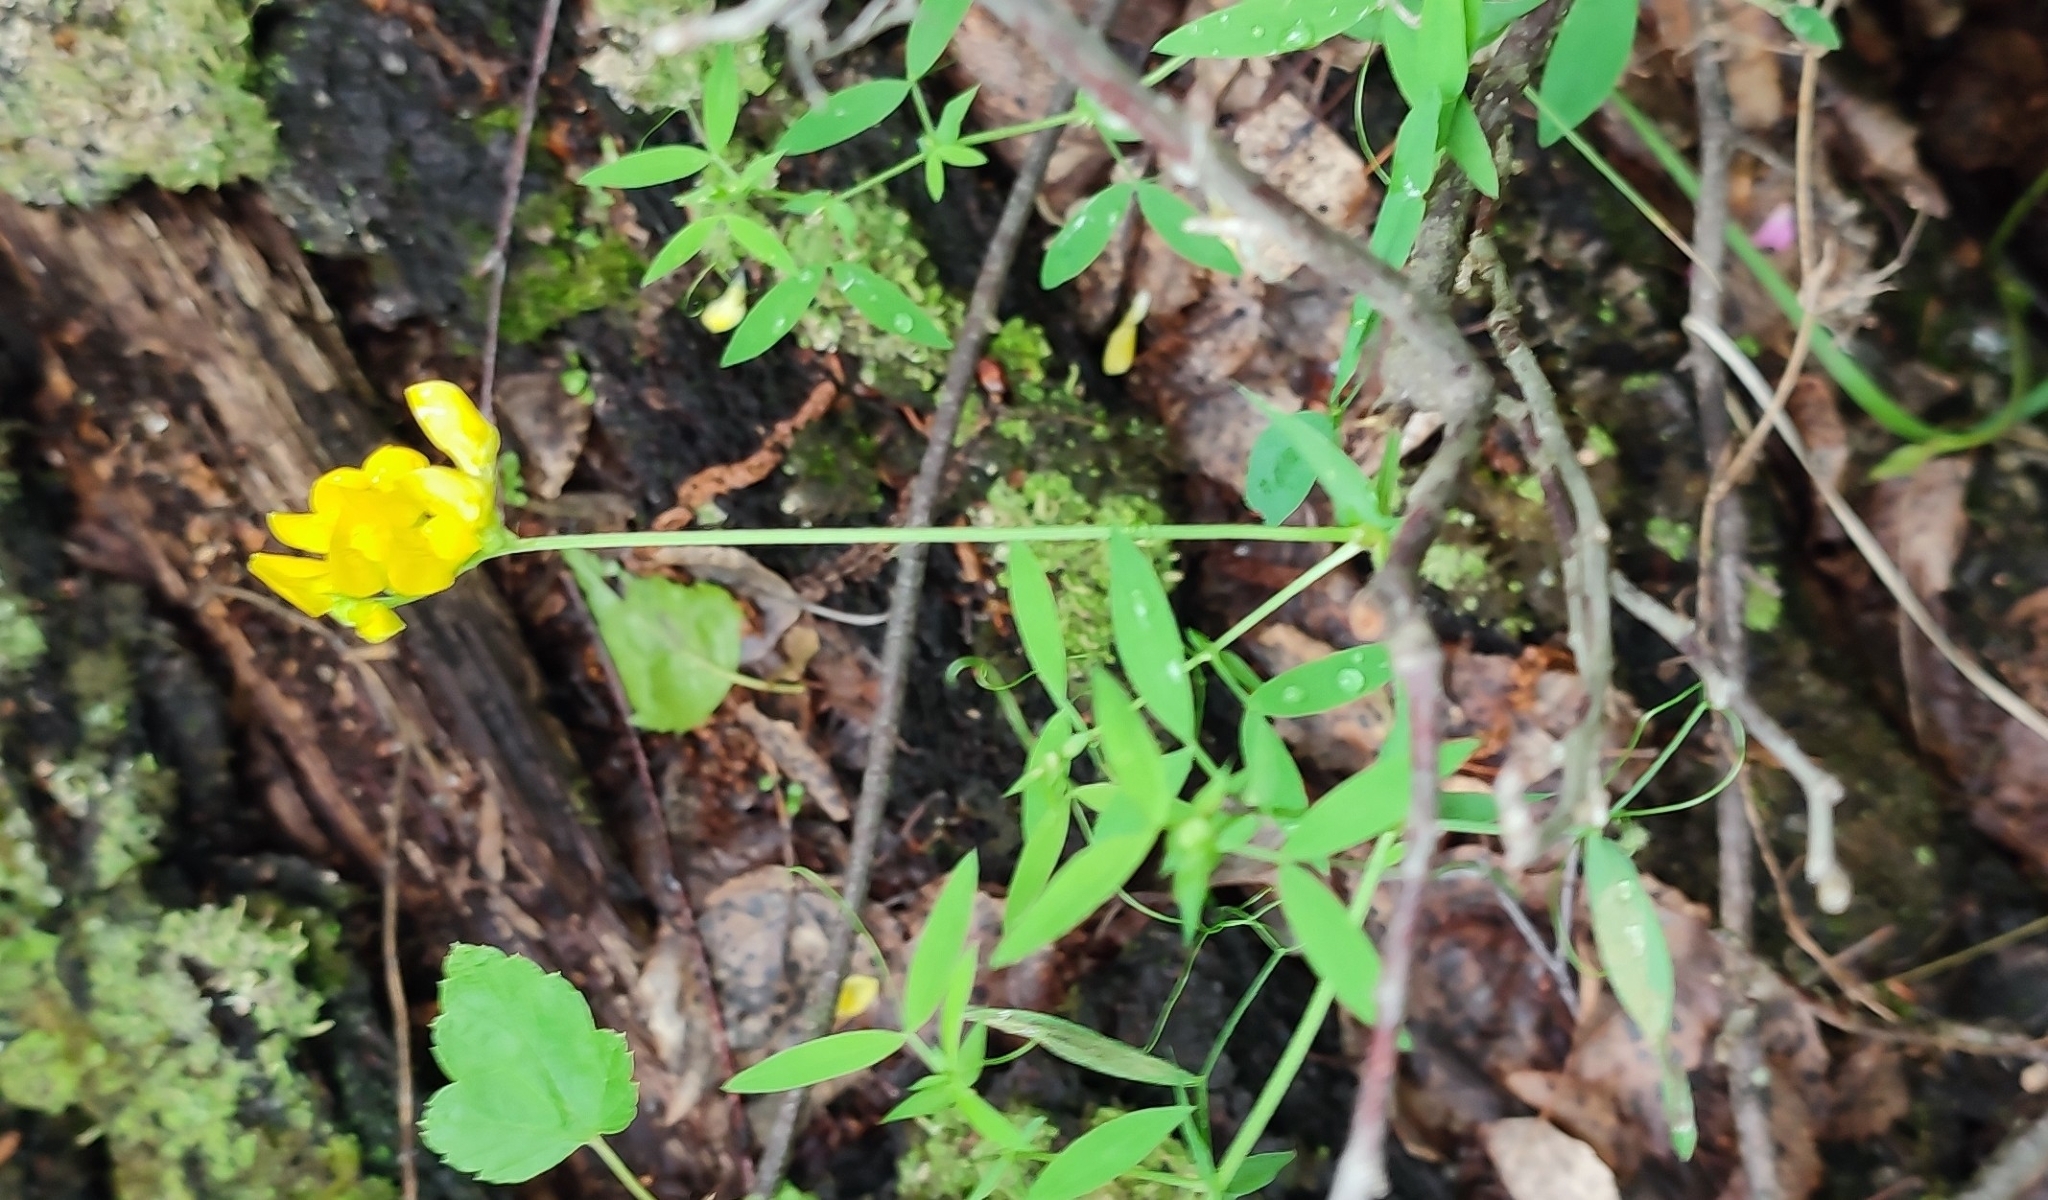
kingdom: Plantae
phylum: Tracheophyta
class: Magnoliopsida
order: Fabales
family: Fabaceae
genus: Lathyrus
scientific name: Lathyrus pratensis
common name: Meadow vetchling
